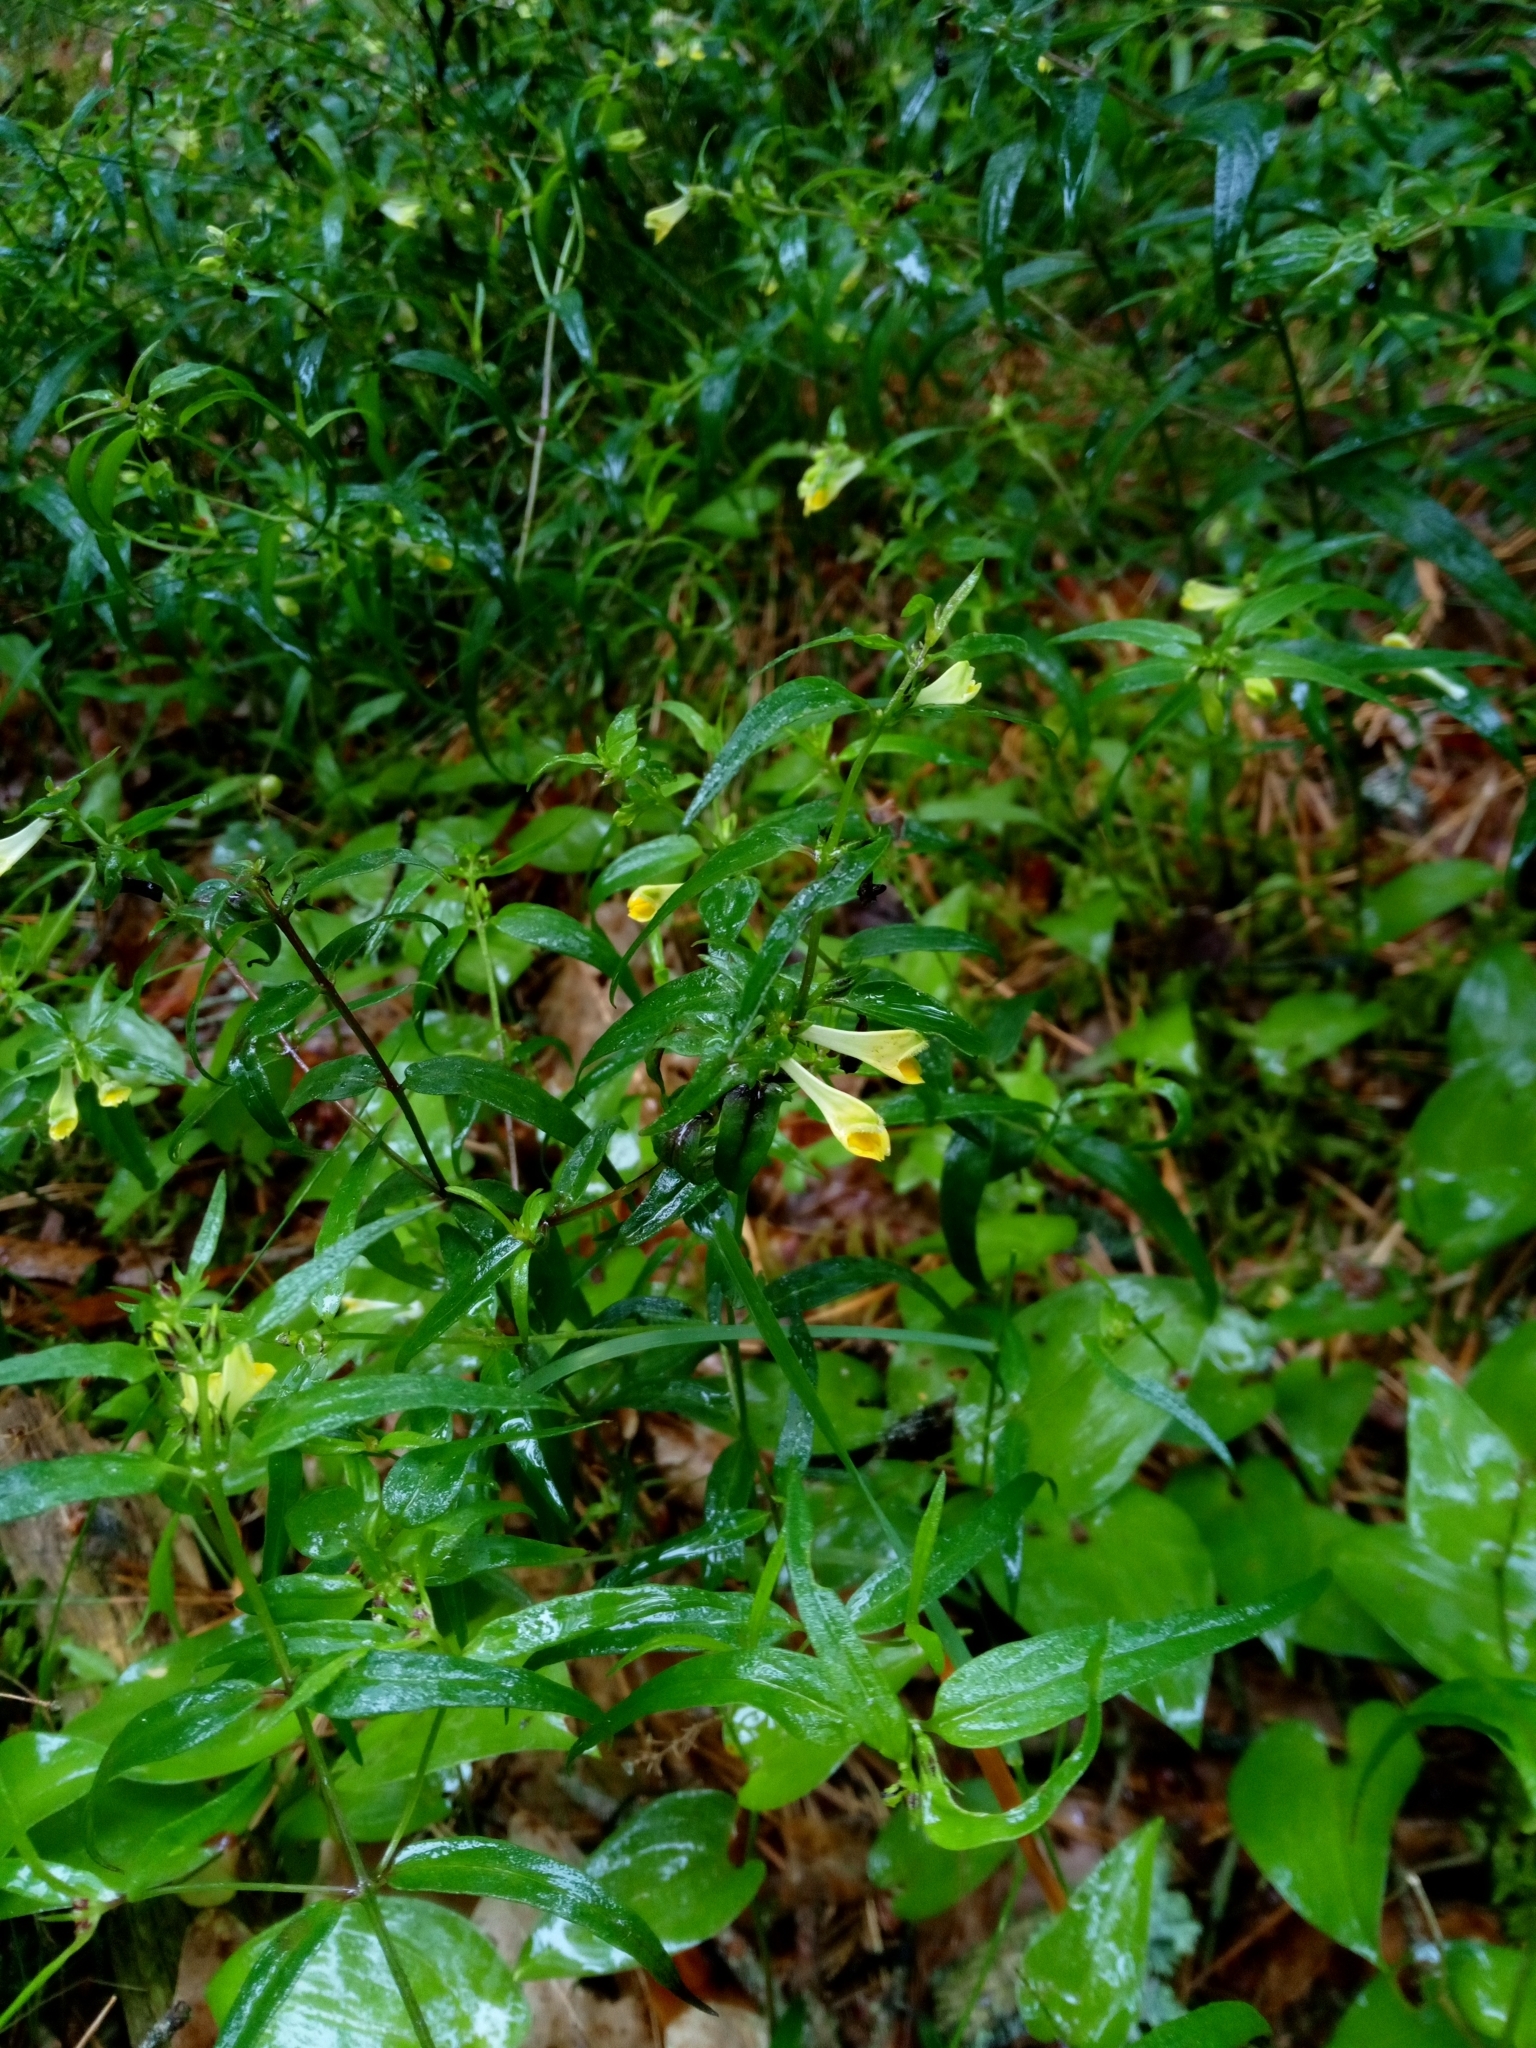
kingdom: Plantae
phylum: Tracheophyta
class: Magnoliopsida
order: Lamiales
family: Orobanchaceae
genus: Melampyrum
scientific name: Melampyrum pratense
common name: Common cow-wheat
